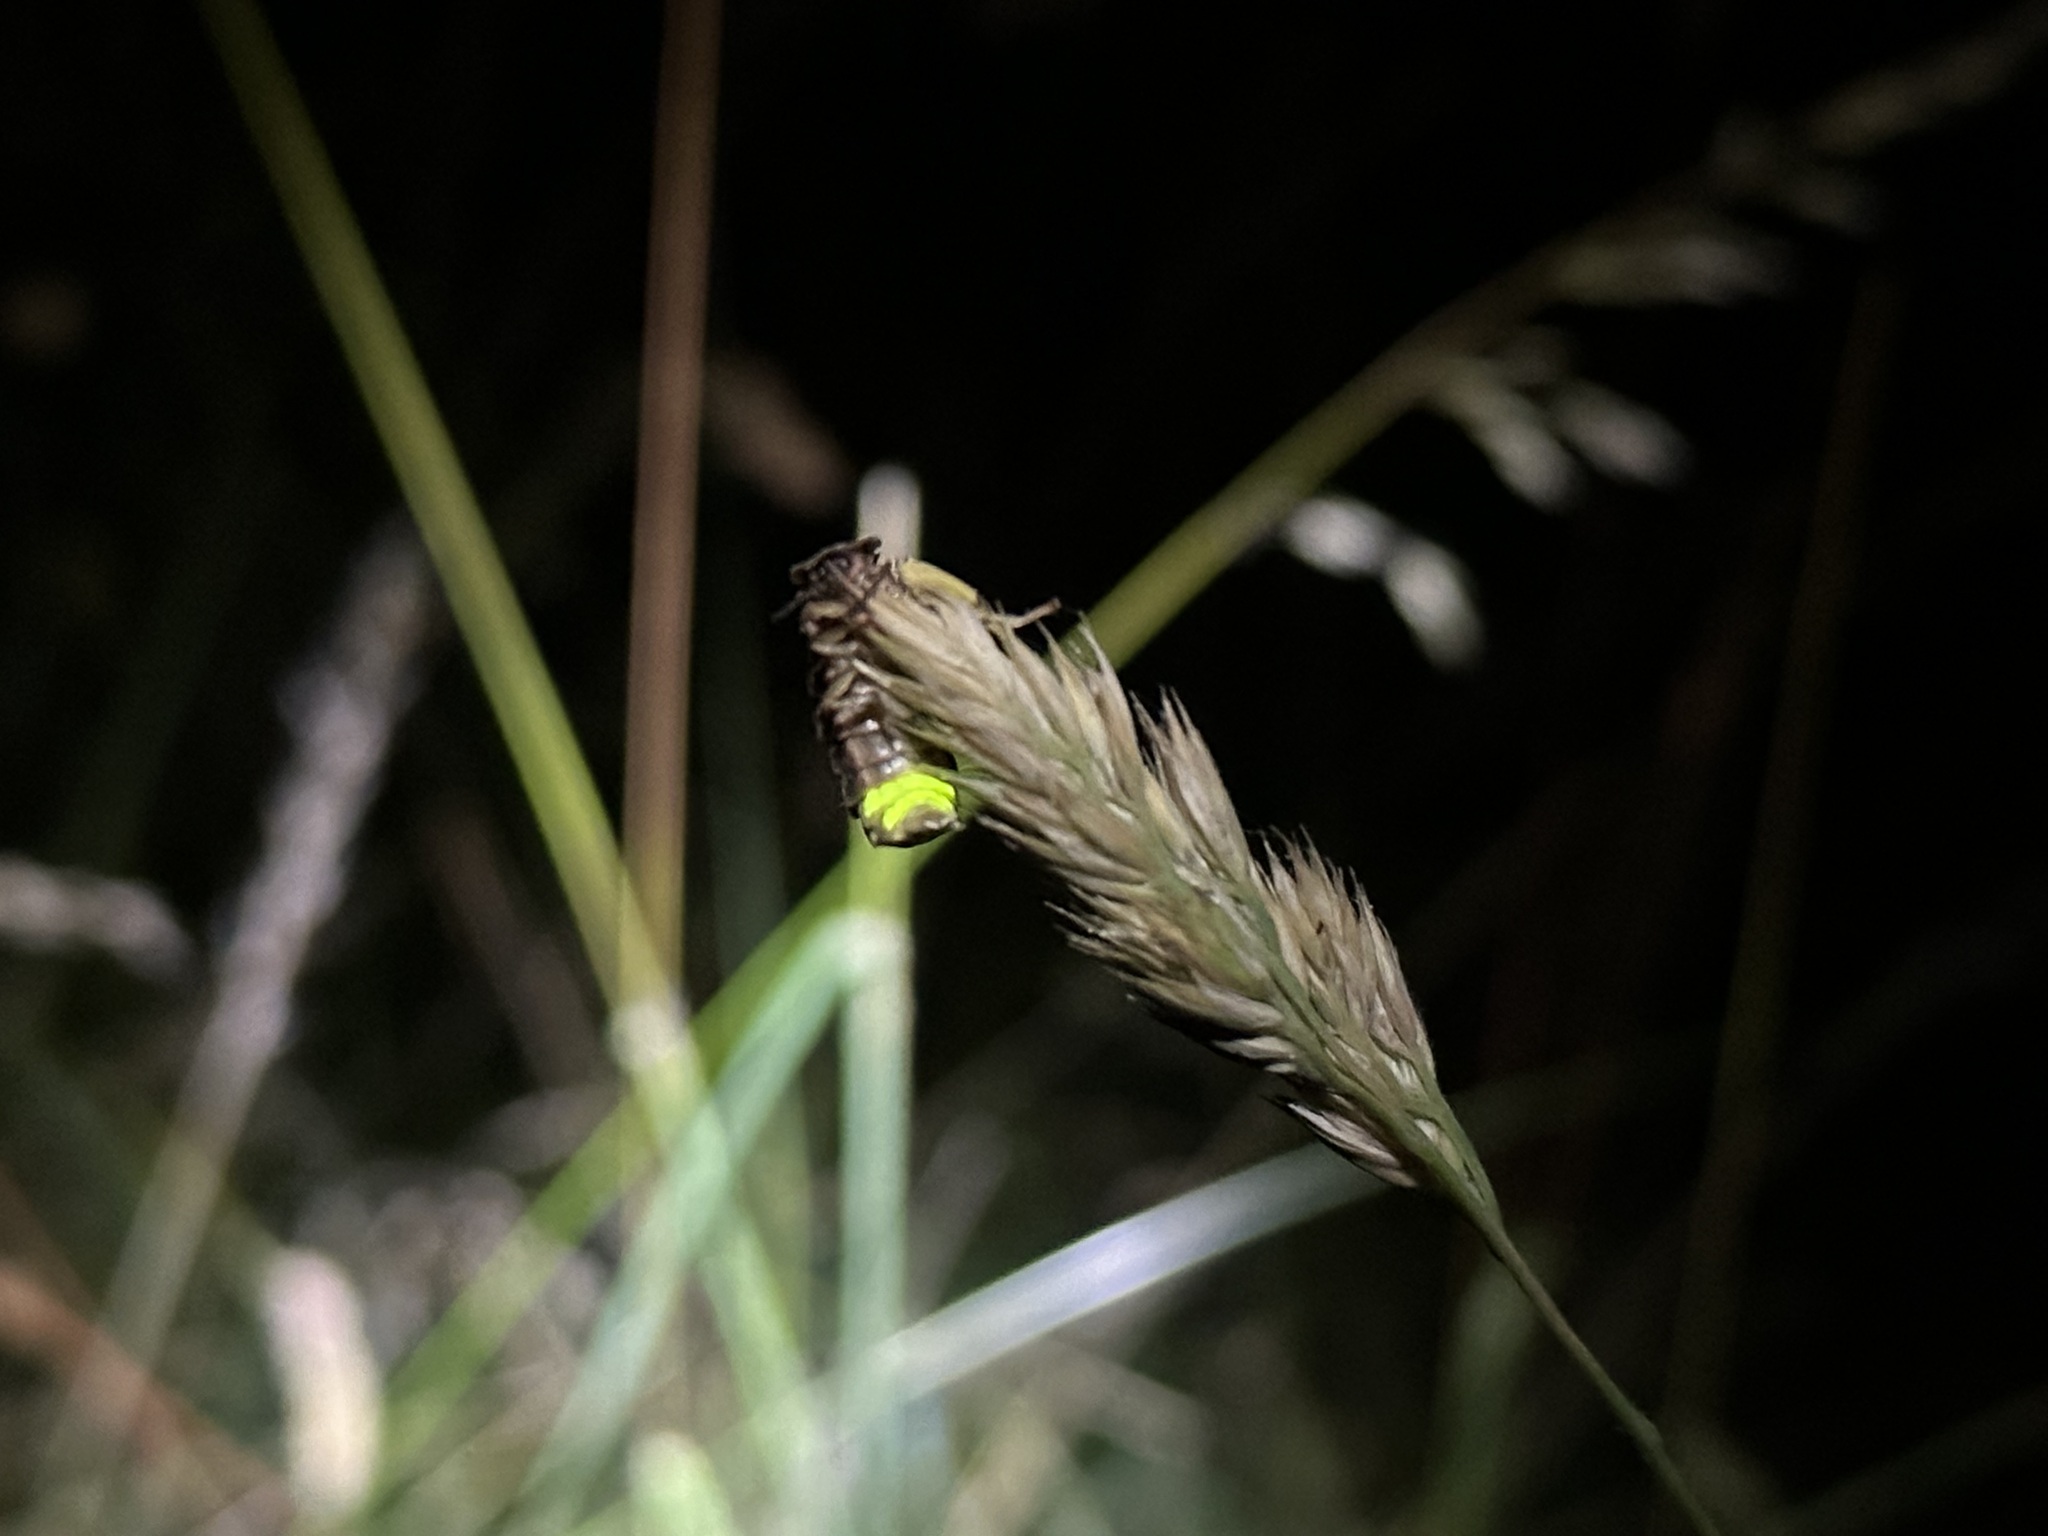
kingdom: Animalia
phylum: Arthropoda
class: Insecta
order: Coleoptera
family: Lampyridae
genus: Lampyris
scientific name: Lampyris noctiluca
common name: Glow-worm
